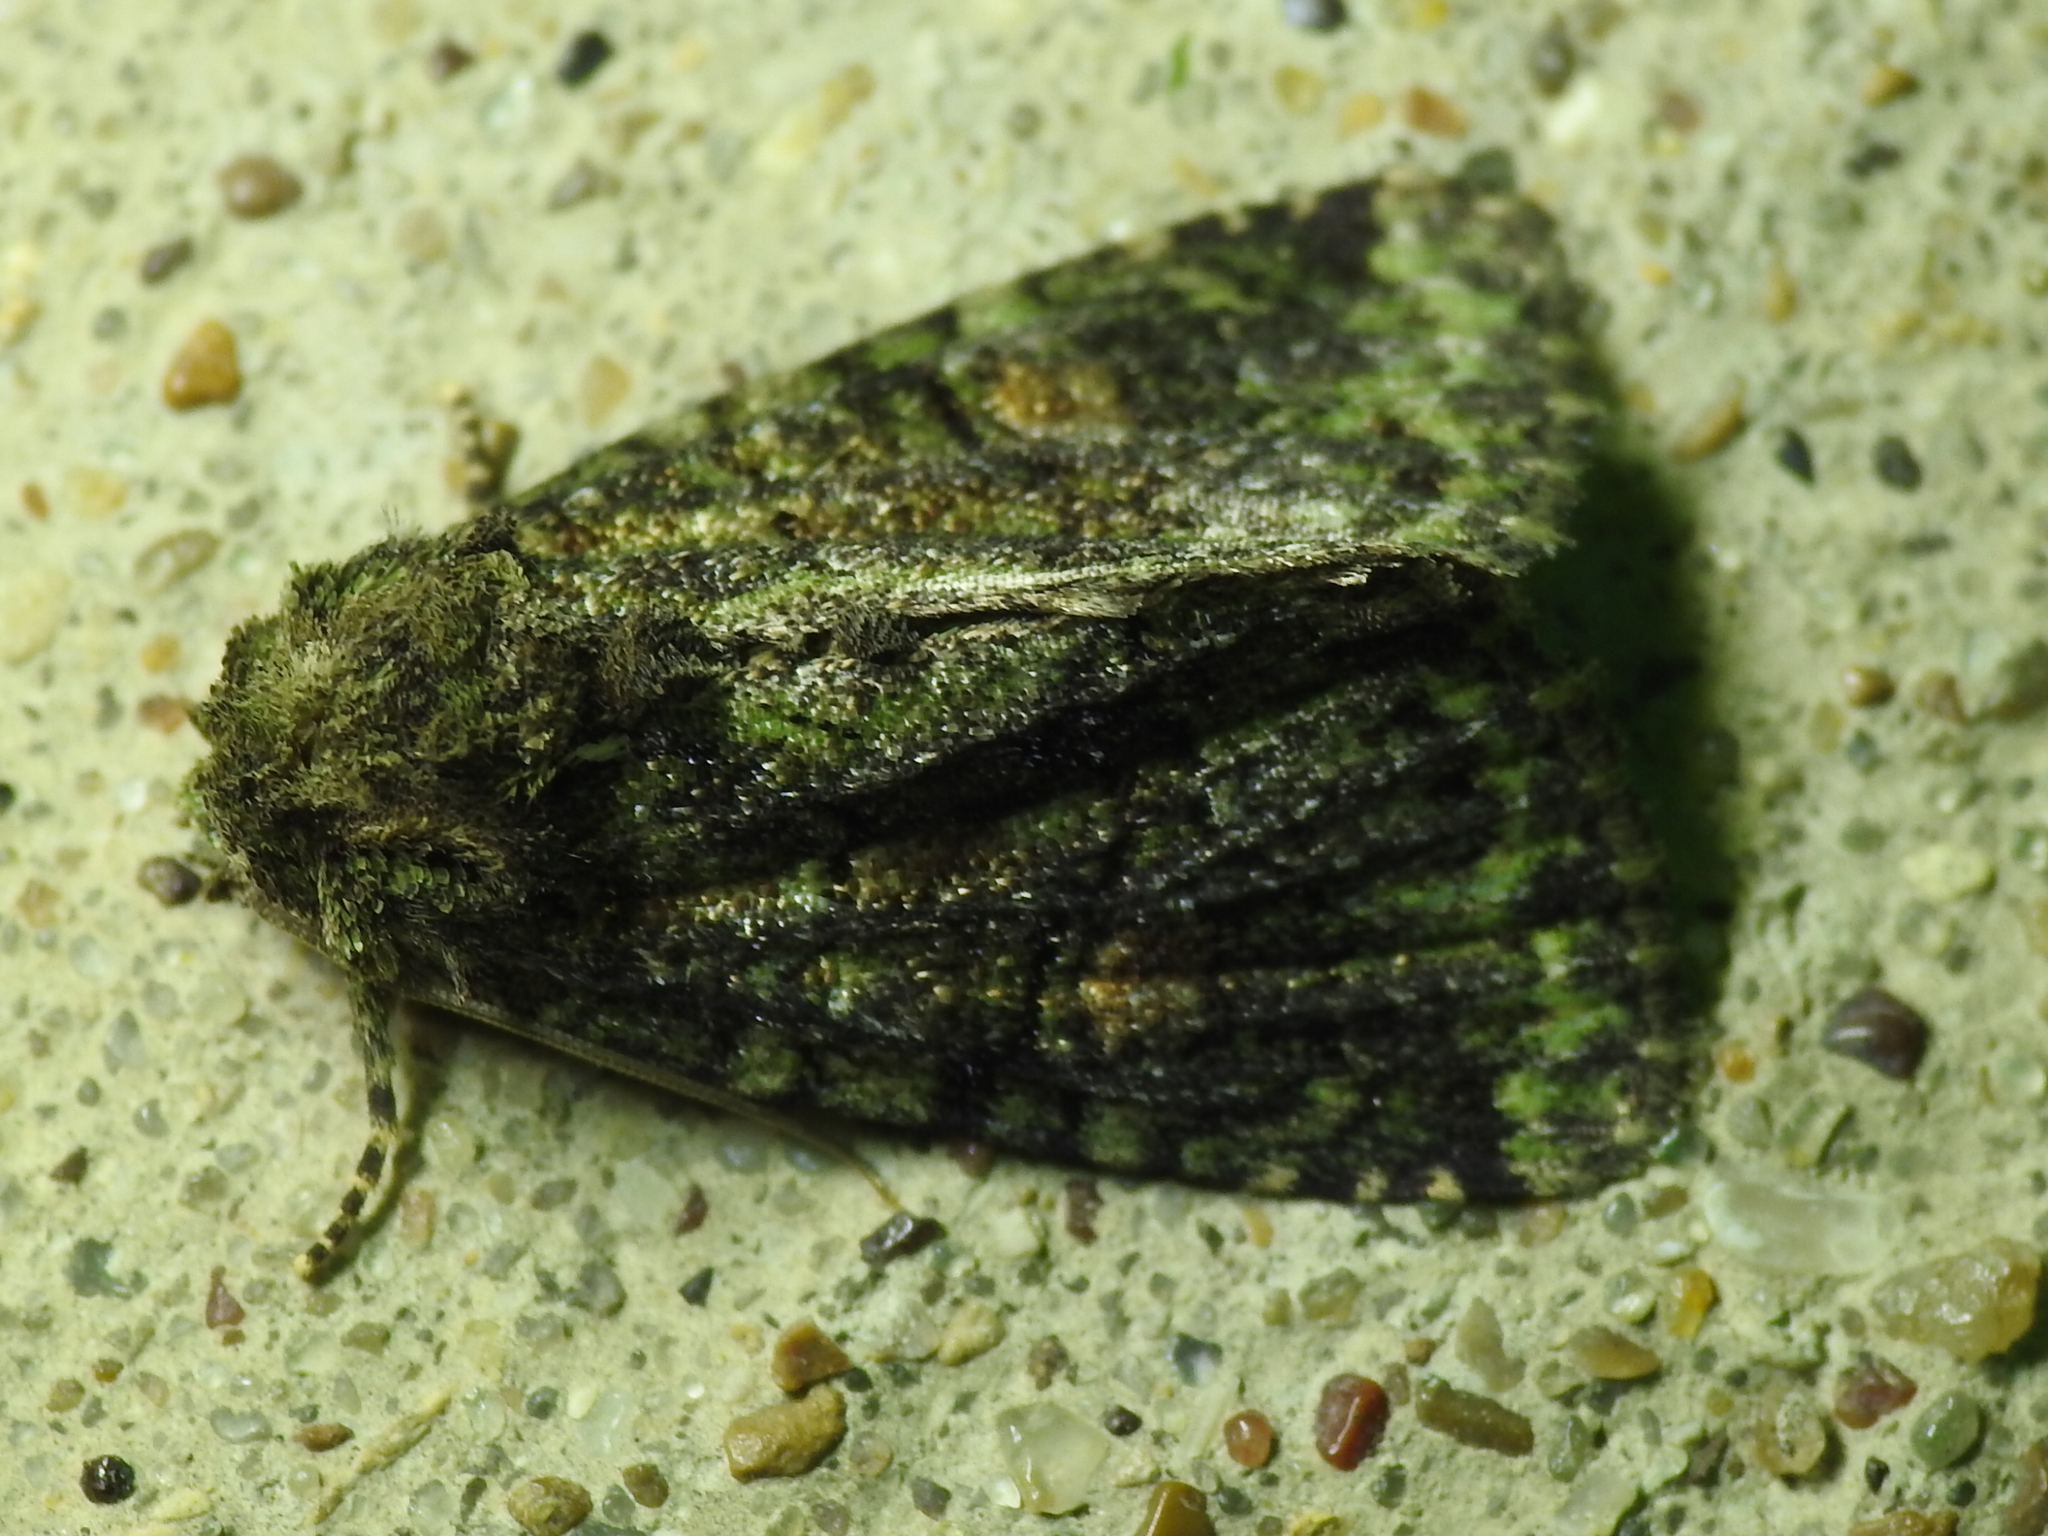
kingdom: Animalia
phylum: Arthropoda
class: Insecta
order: Lepidoptera
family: Noctuidae
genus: Phosphila
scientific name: Phosphila miselioides
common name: Spotted phosphila moth
